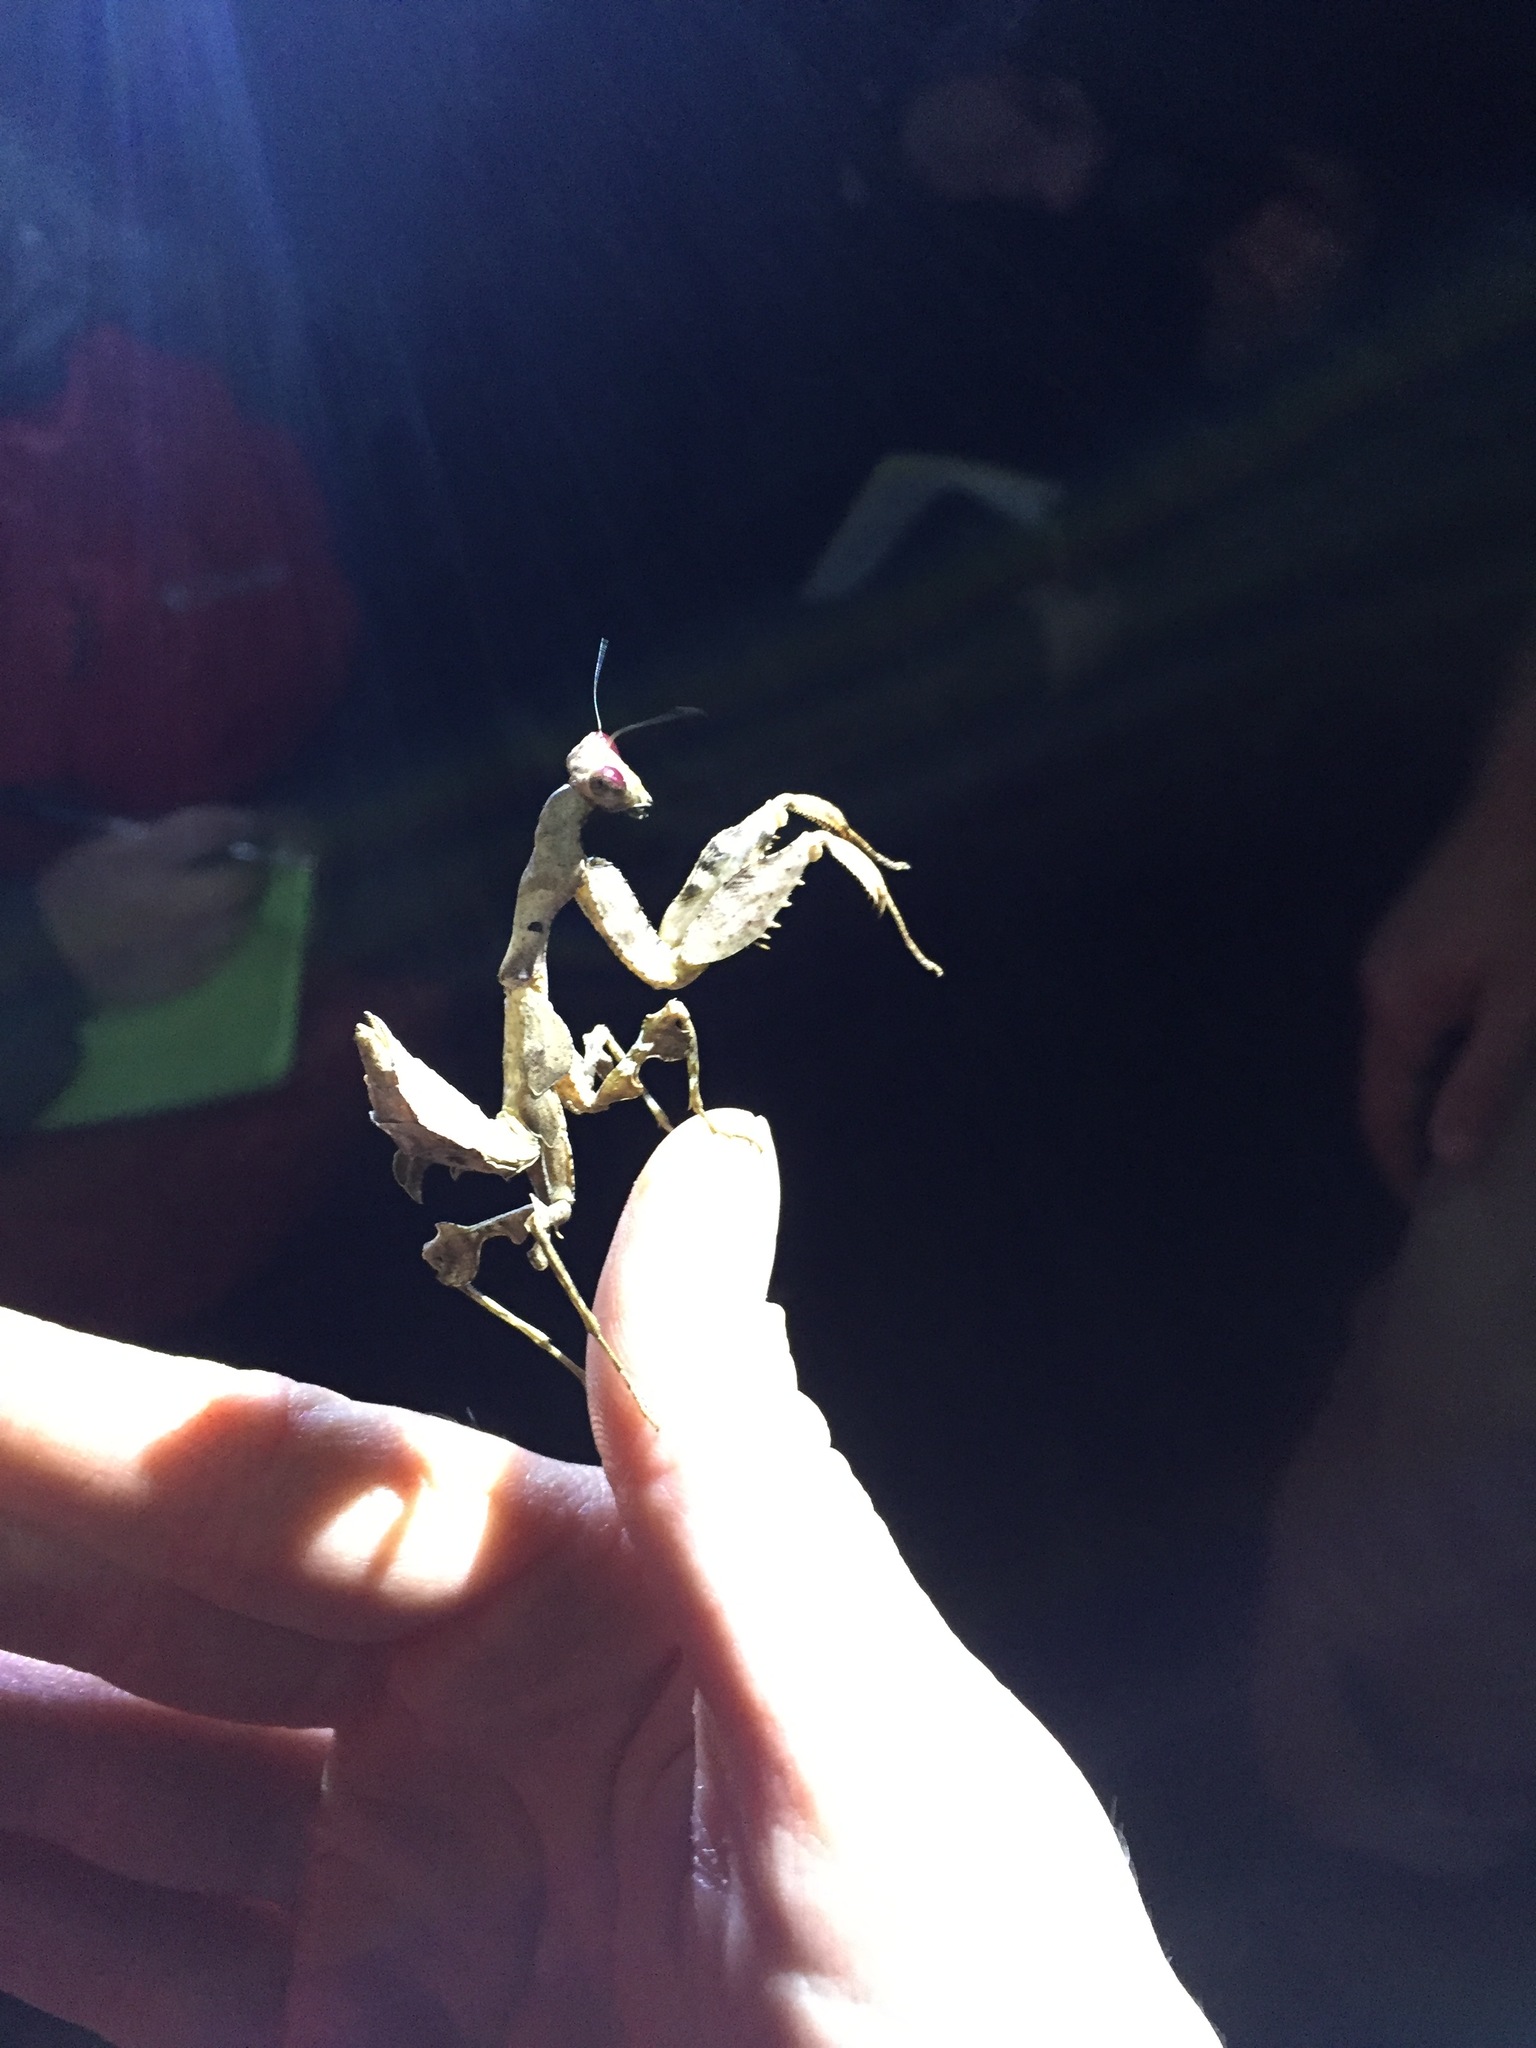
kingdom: Animalia
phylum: Arthropoda
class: Insecta
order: Mantodea
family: Mantidae
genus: Antemna
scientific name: Antemna rapax
